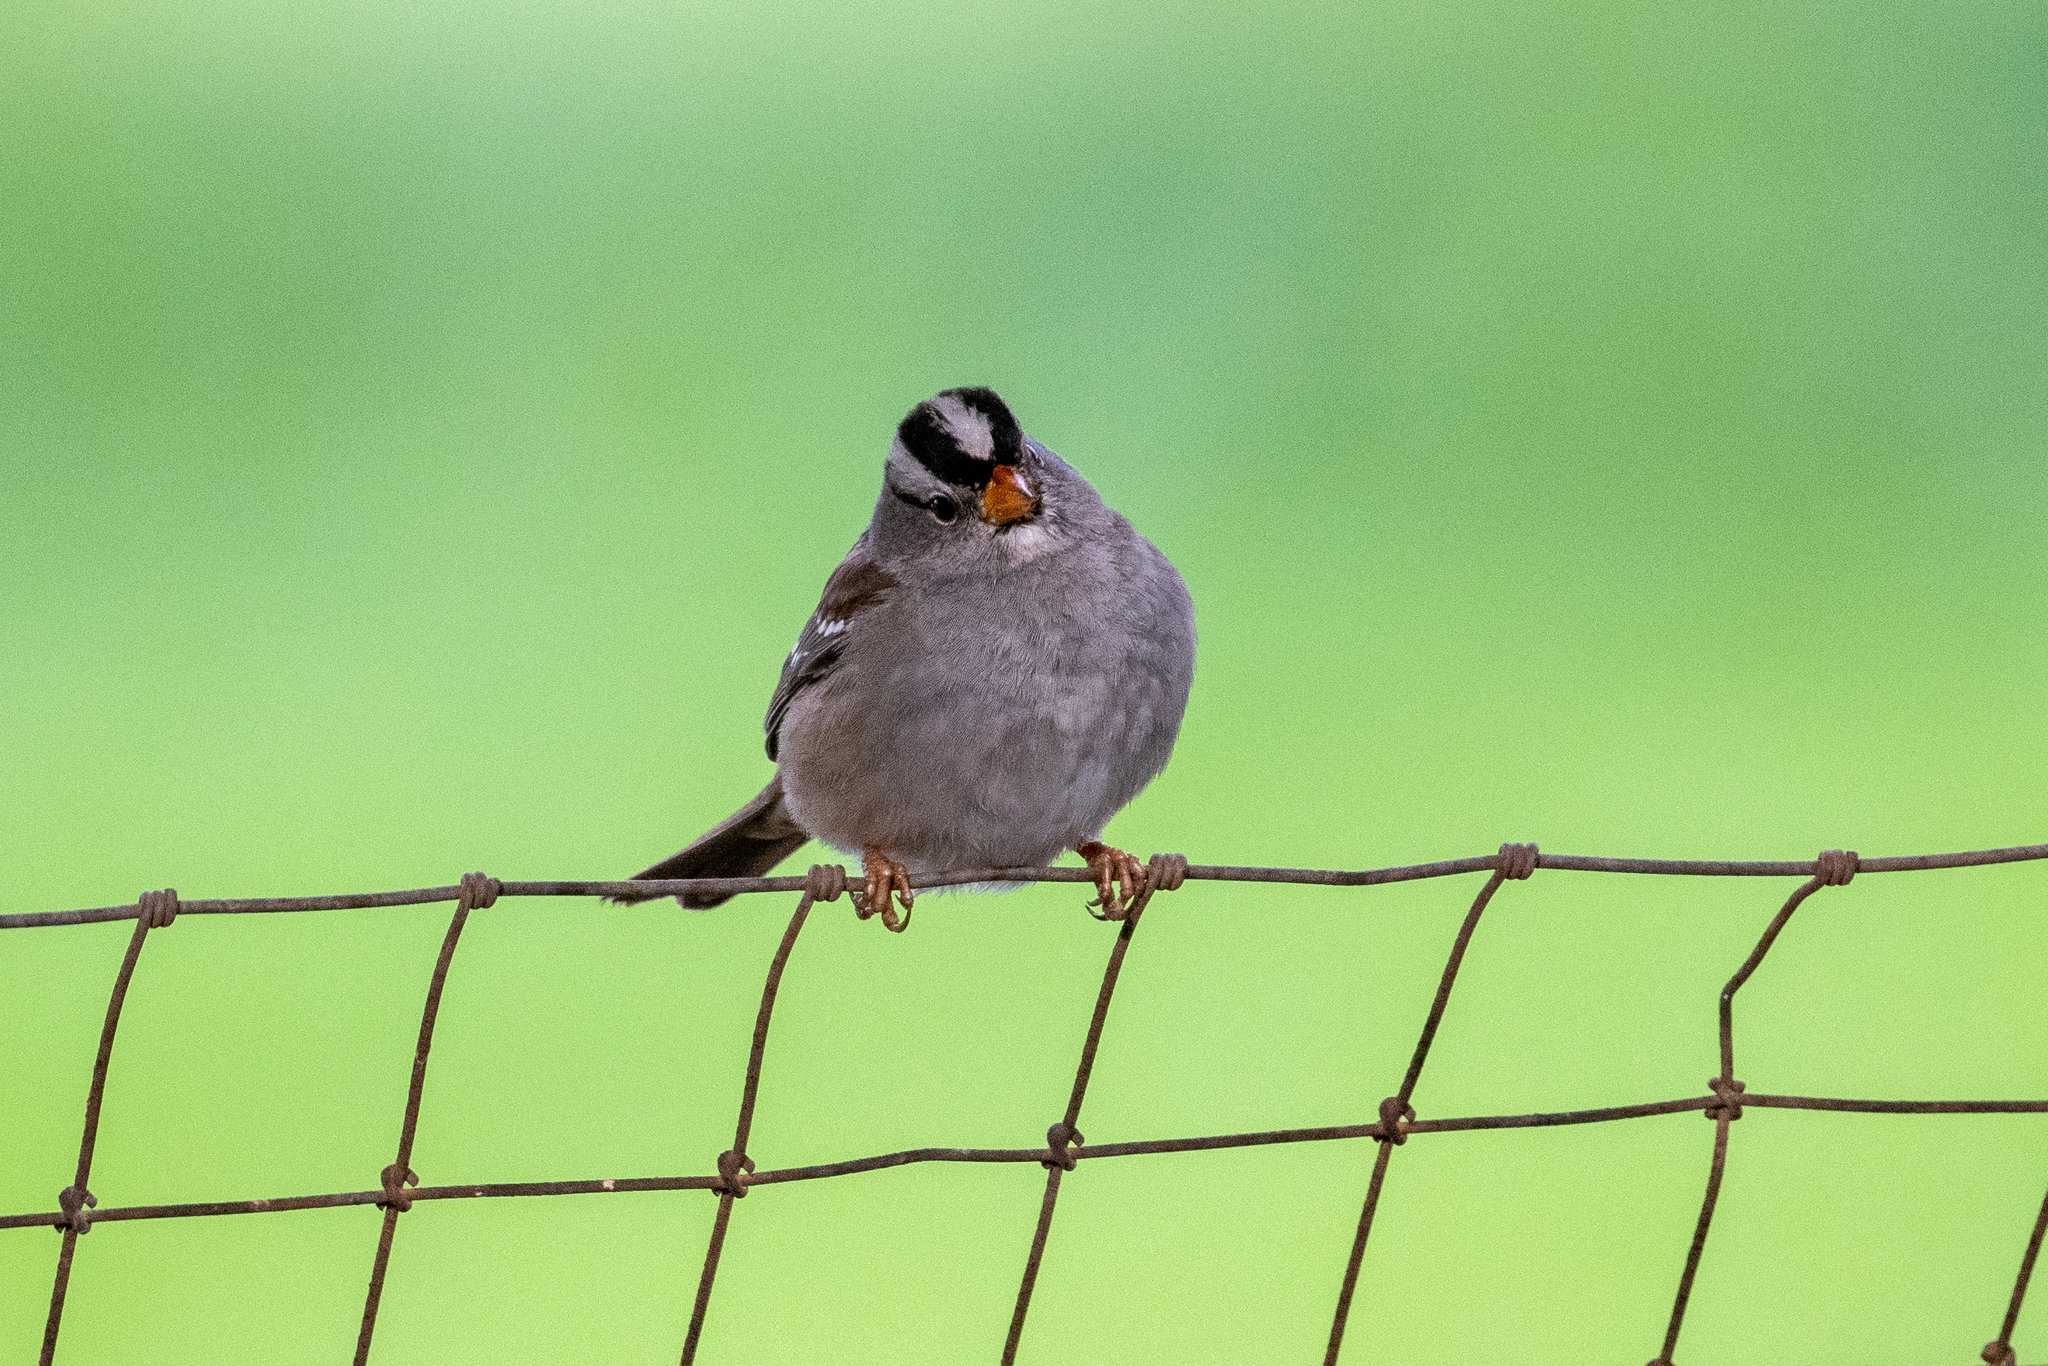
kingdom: Animalia
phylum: Chordata
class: Aves
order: Passeriformes
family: Passerellidae
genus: Zonotrichia
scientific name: Zonotrichia leucophrys
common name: White-crowned sparrow
